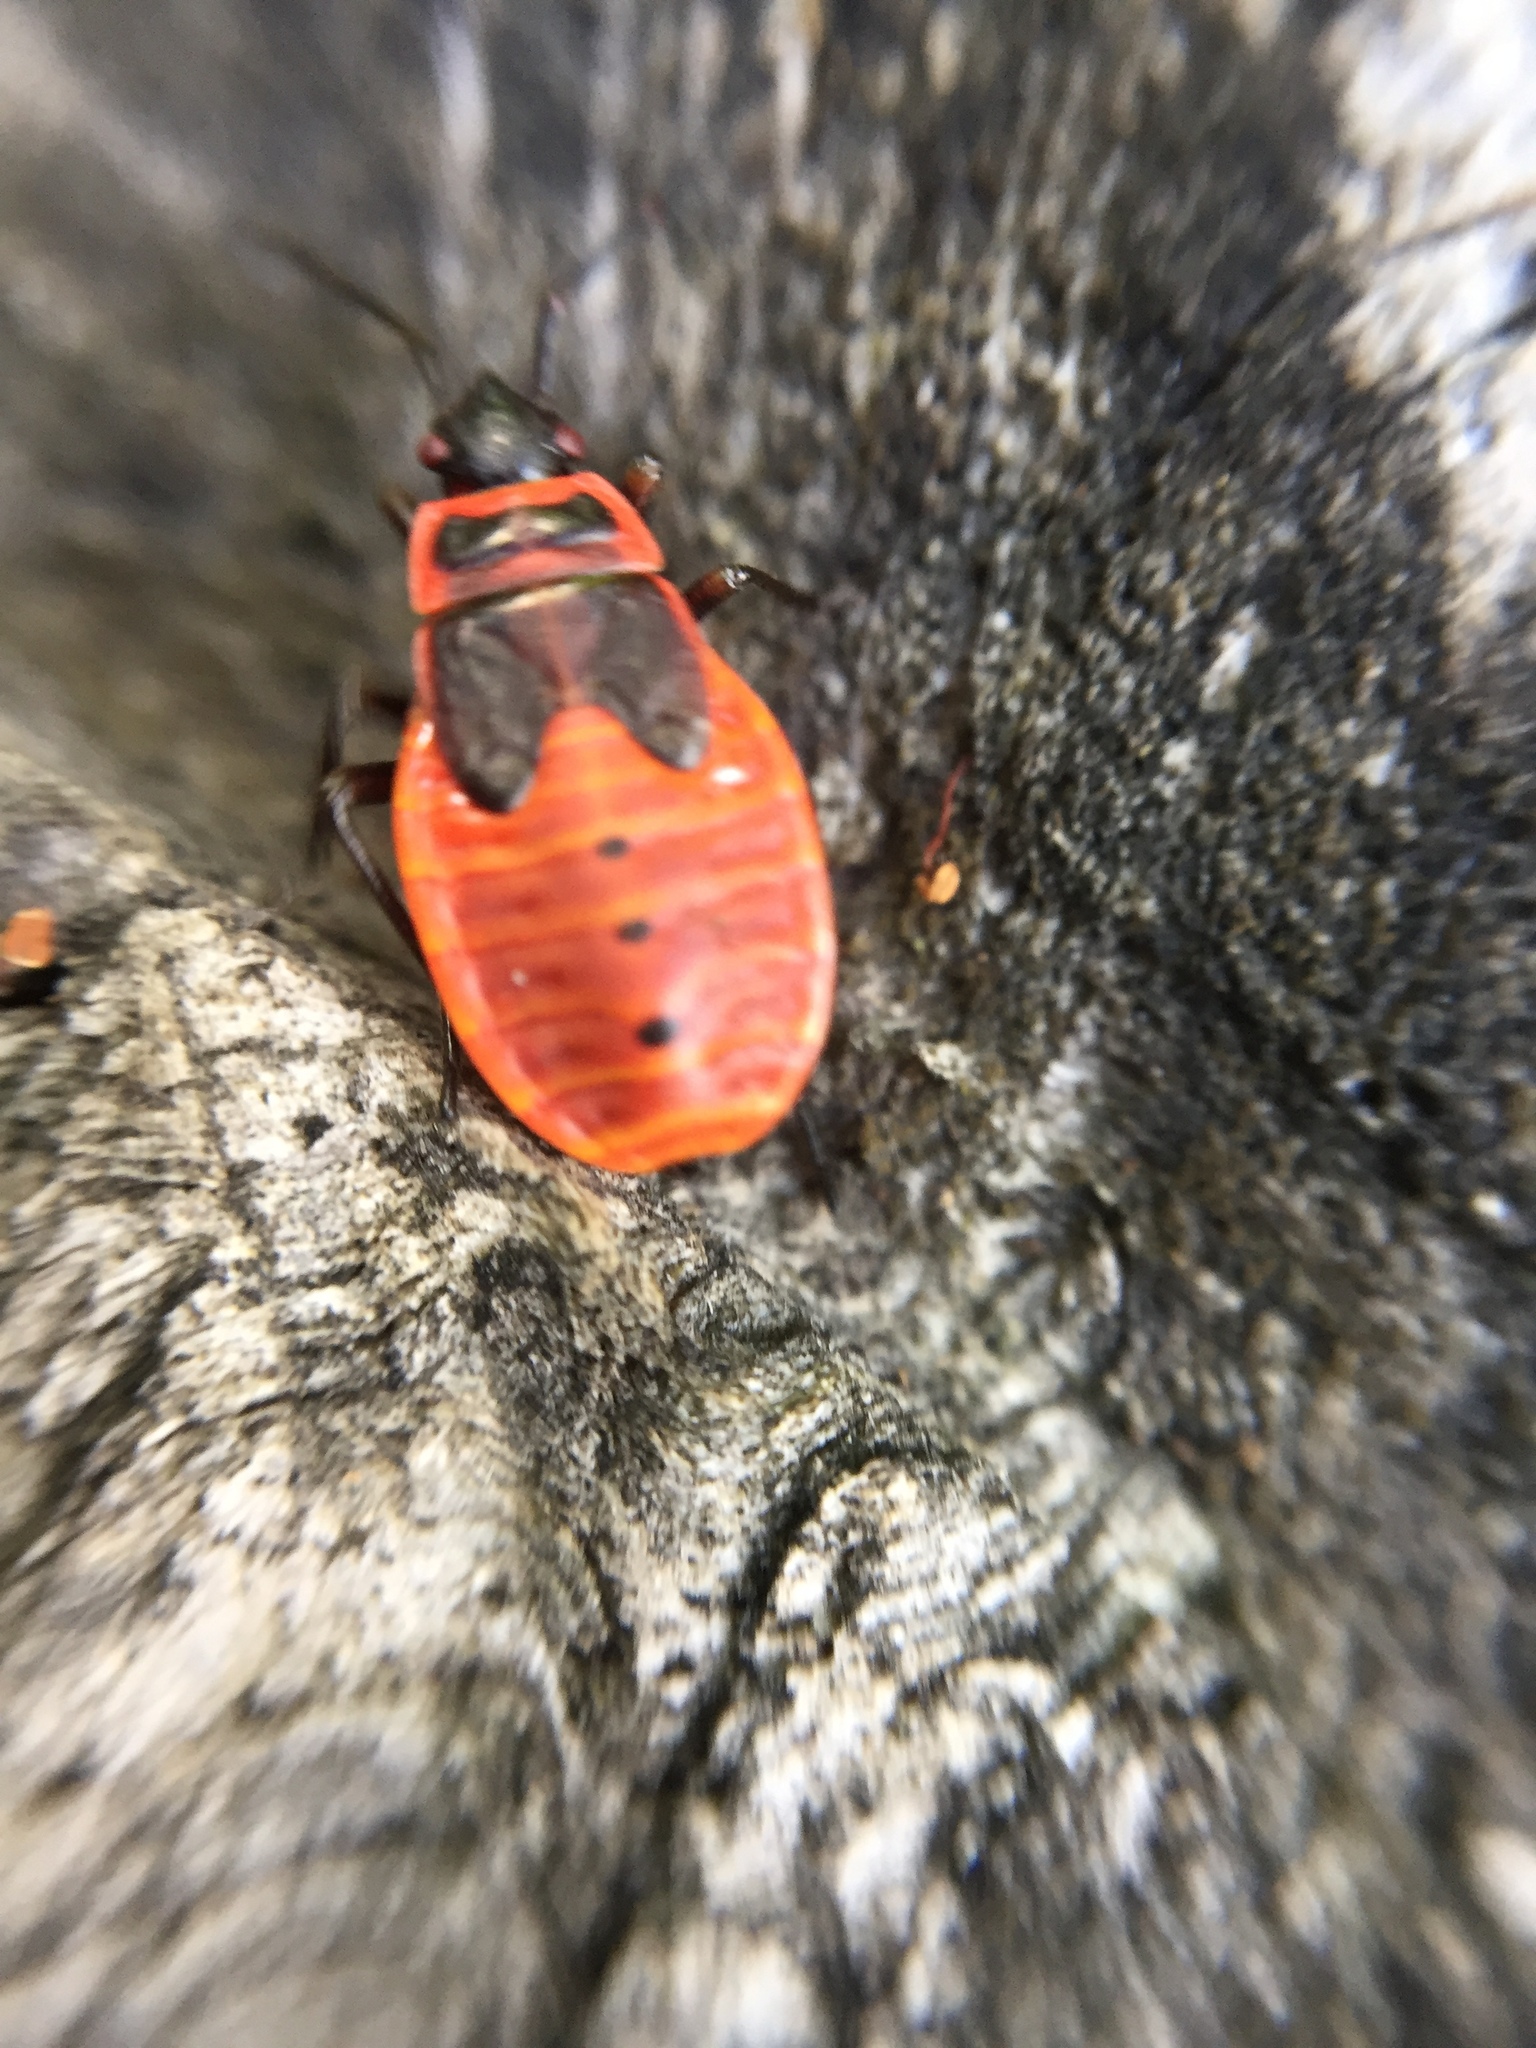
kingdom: Animalia
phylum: Arthropoda
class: Insecta
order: Hemiptera
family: Pyrrhocoridae
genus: Pyrrhocoris
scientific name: Pyrrhocoris apterus
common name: Firebug
